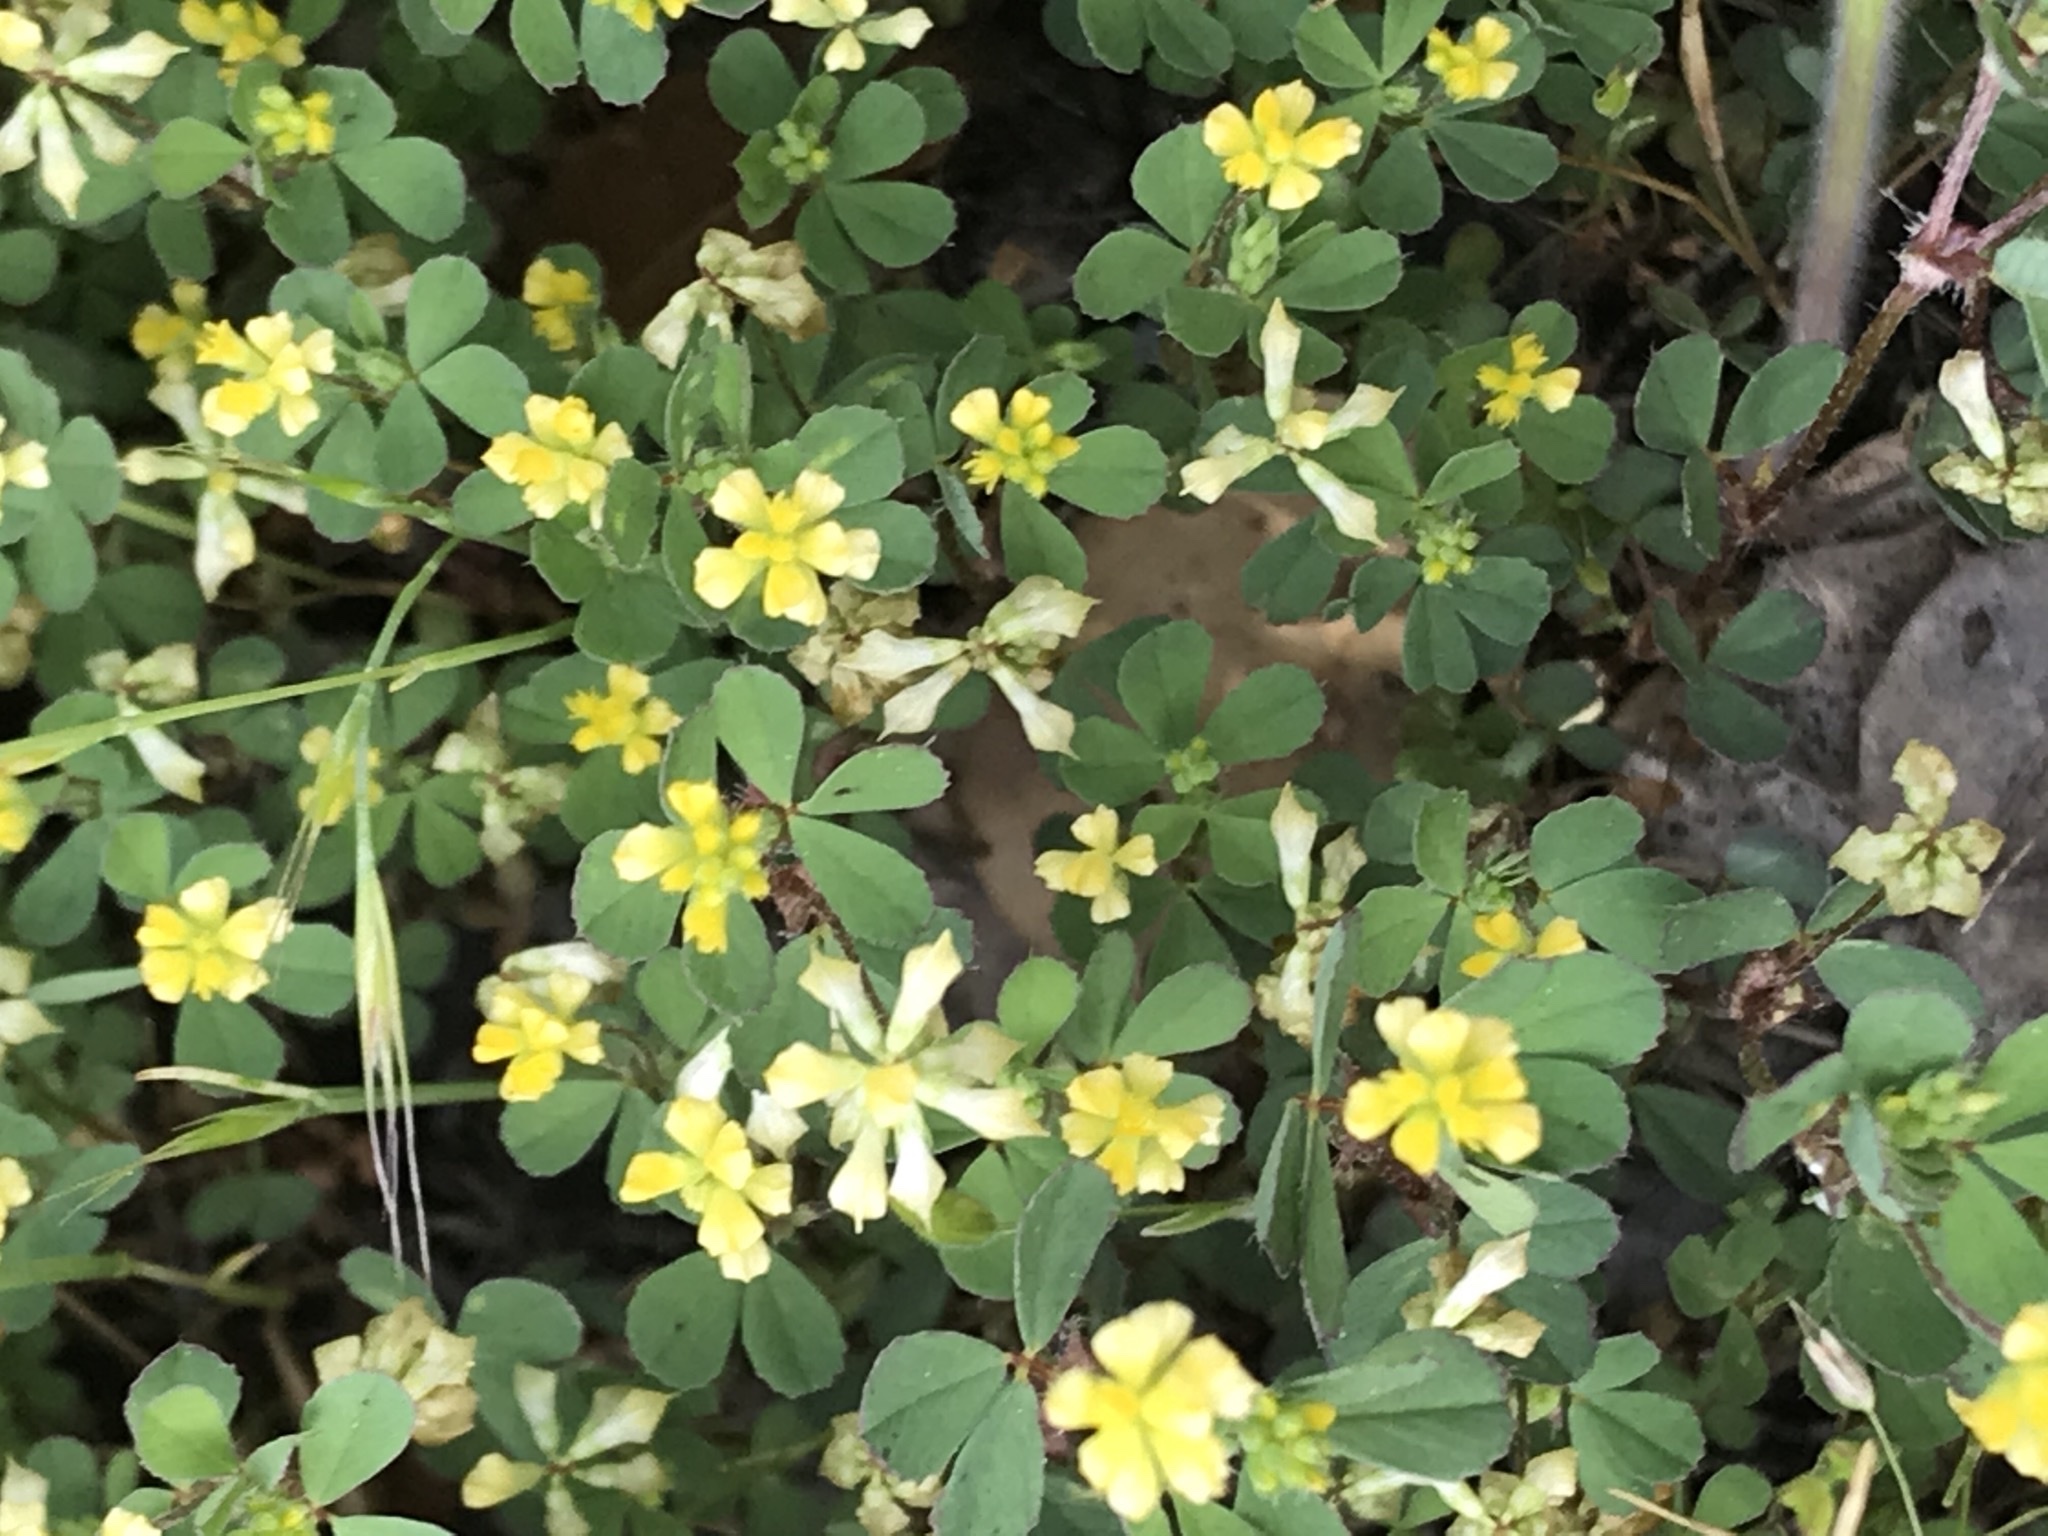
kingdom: Plantae
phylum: Tracheophyta
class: Magnoliopsida
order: Fabales
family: Fabaceae
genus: Trifolium
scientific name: Trifolium dubium
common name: Suckling clover
